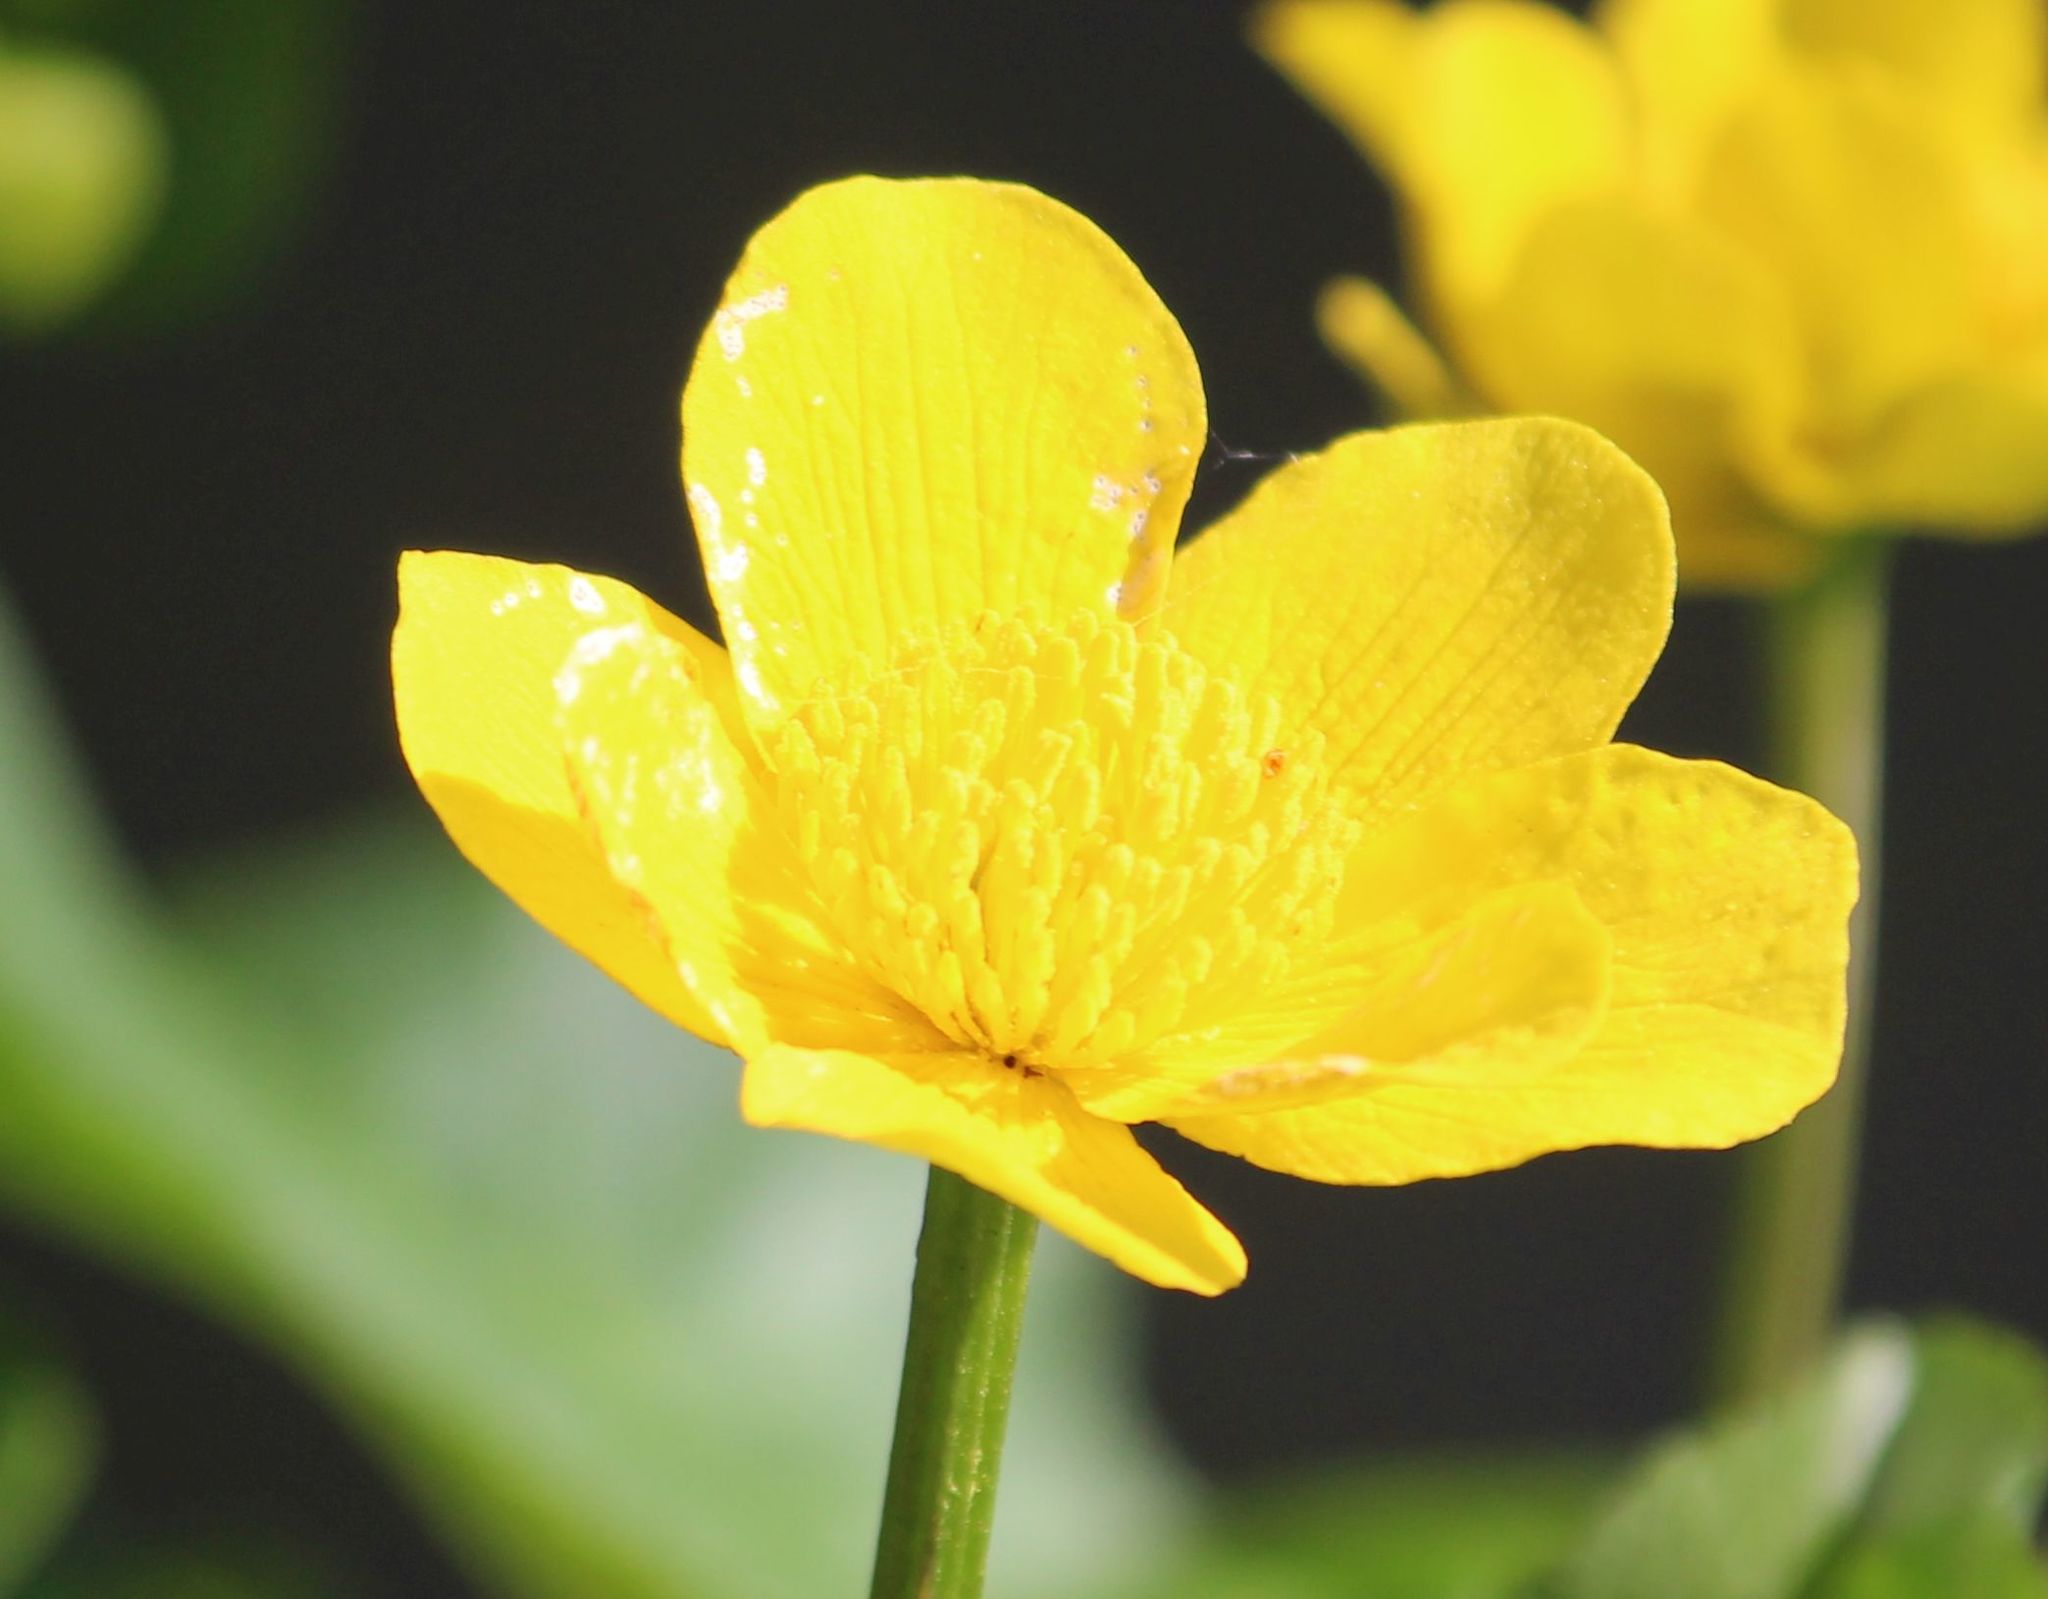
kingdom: Plantae
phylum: Tracheophyta
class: Magnoliopsida
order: Ranunculales
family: Ranunculaceae
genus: Caltha
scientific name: Caltha palustris
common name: Marsh marigold
